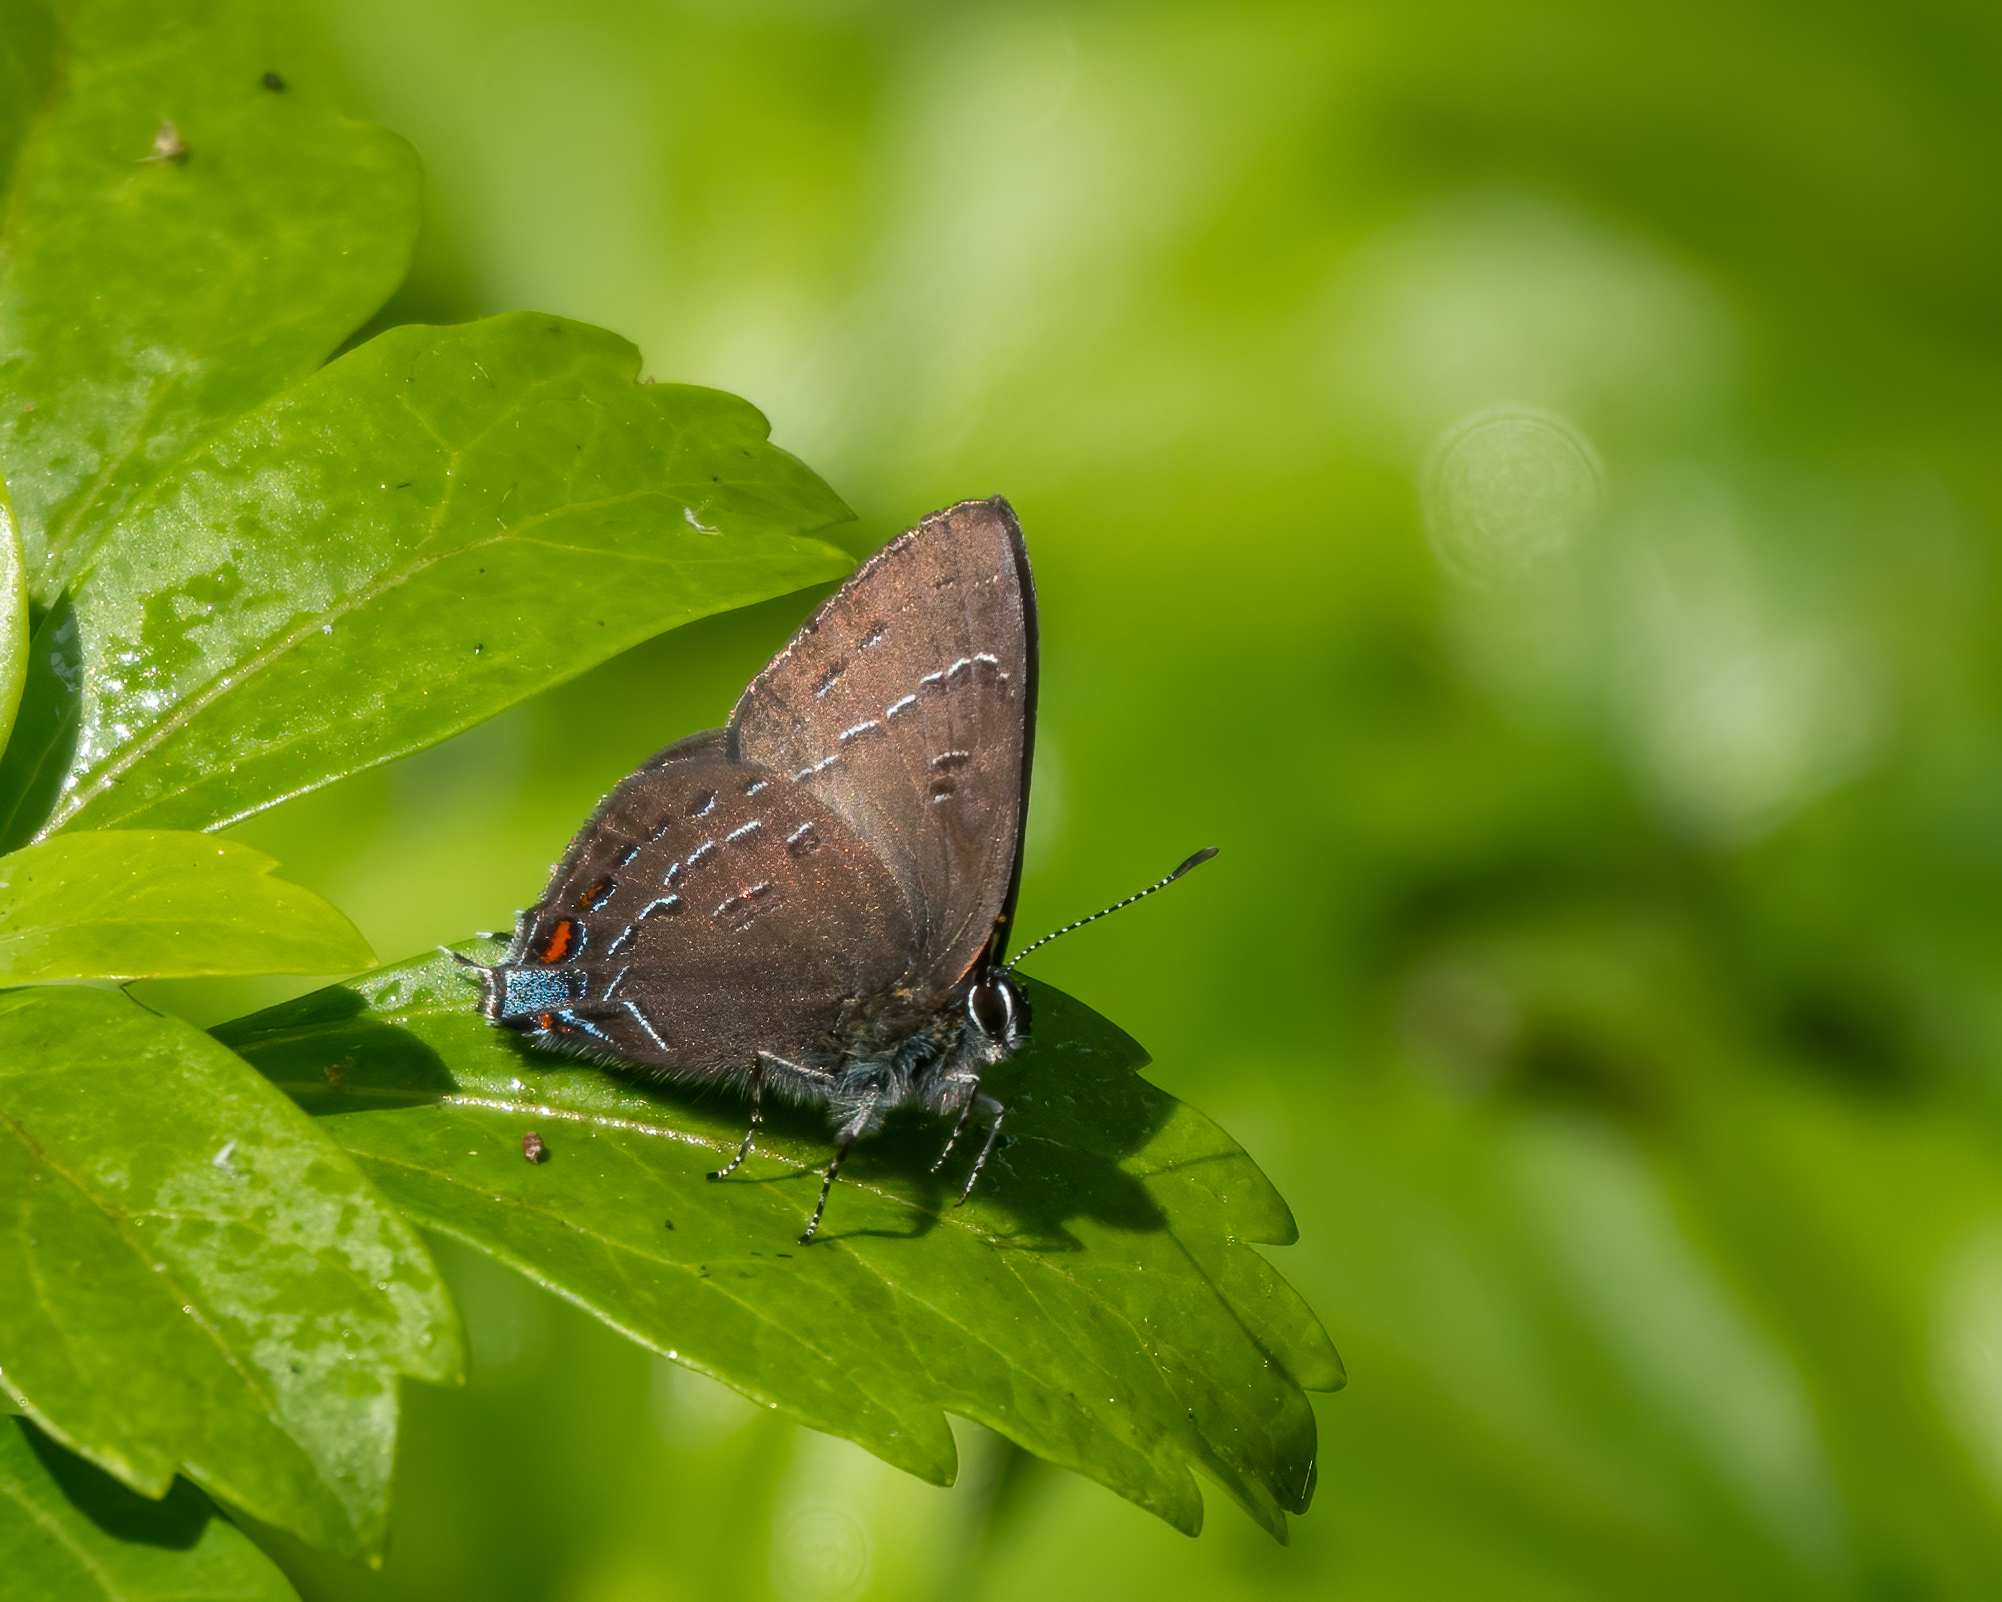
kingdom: Animalia
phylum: Arthropoda
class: Insecta
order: Lepidoptera
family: Lycaenidae
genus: Satyrium
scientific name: Satyrium calanus
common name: Banded hairstreak
